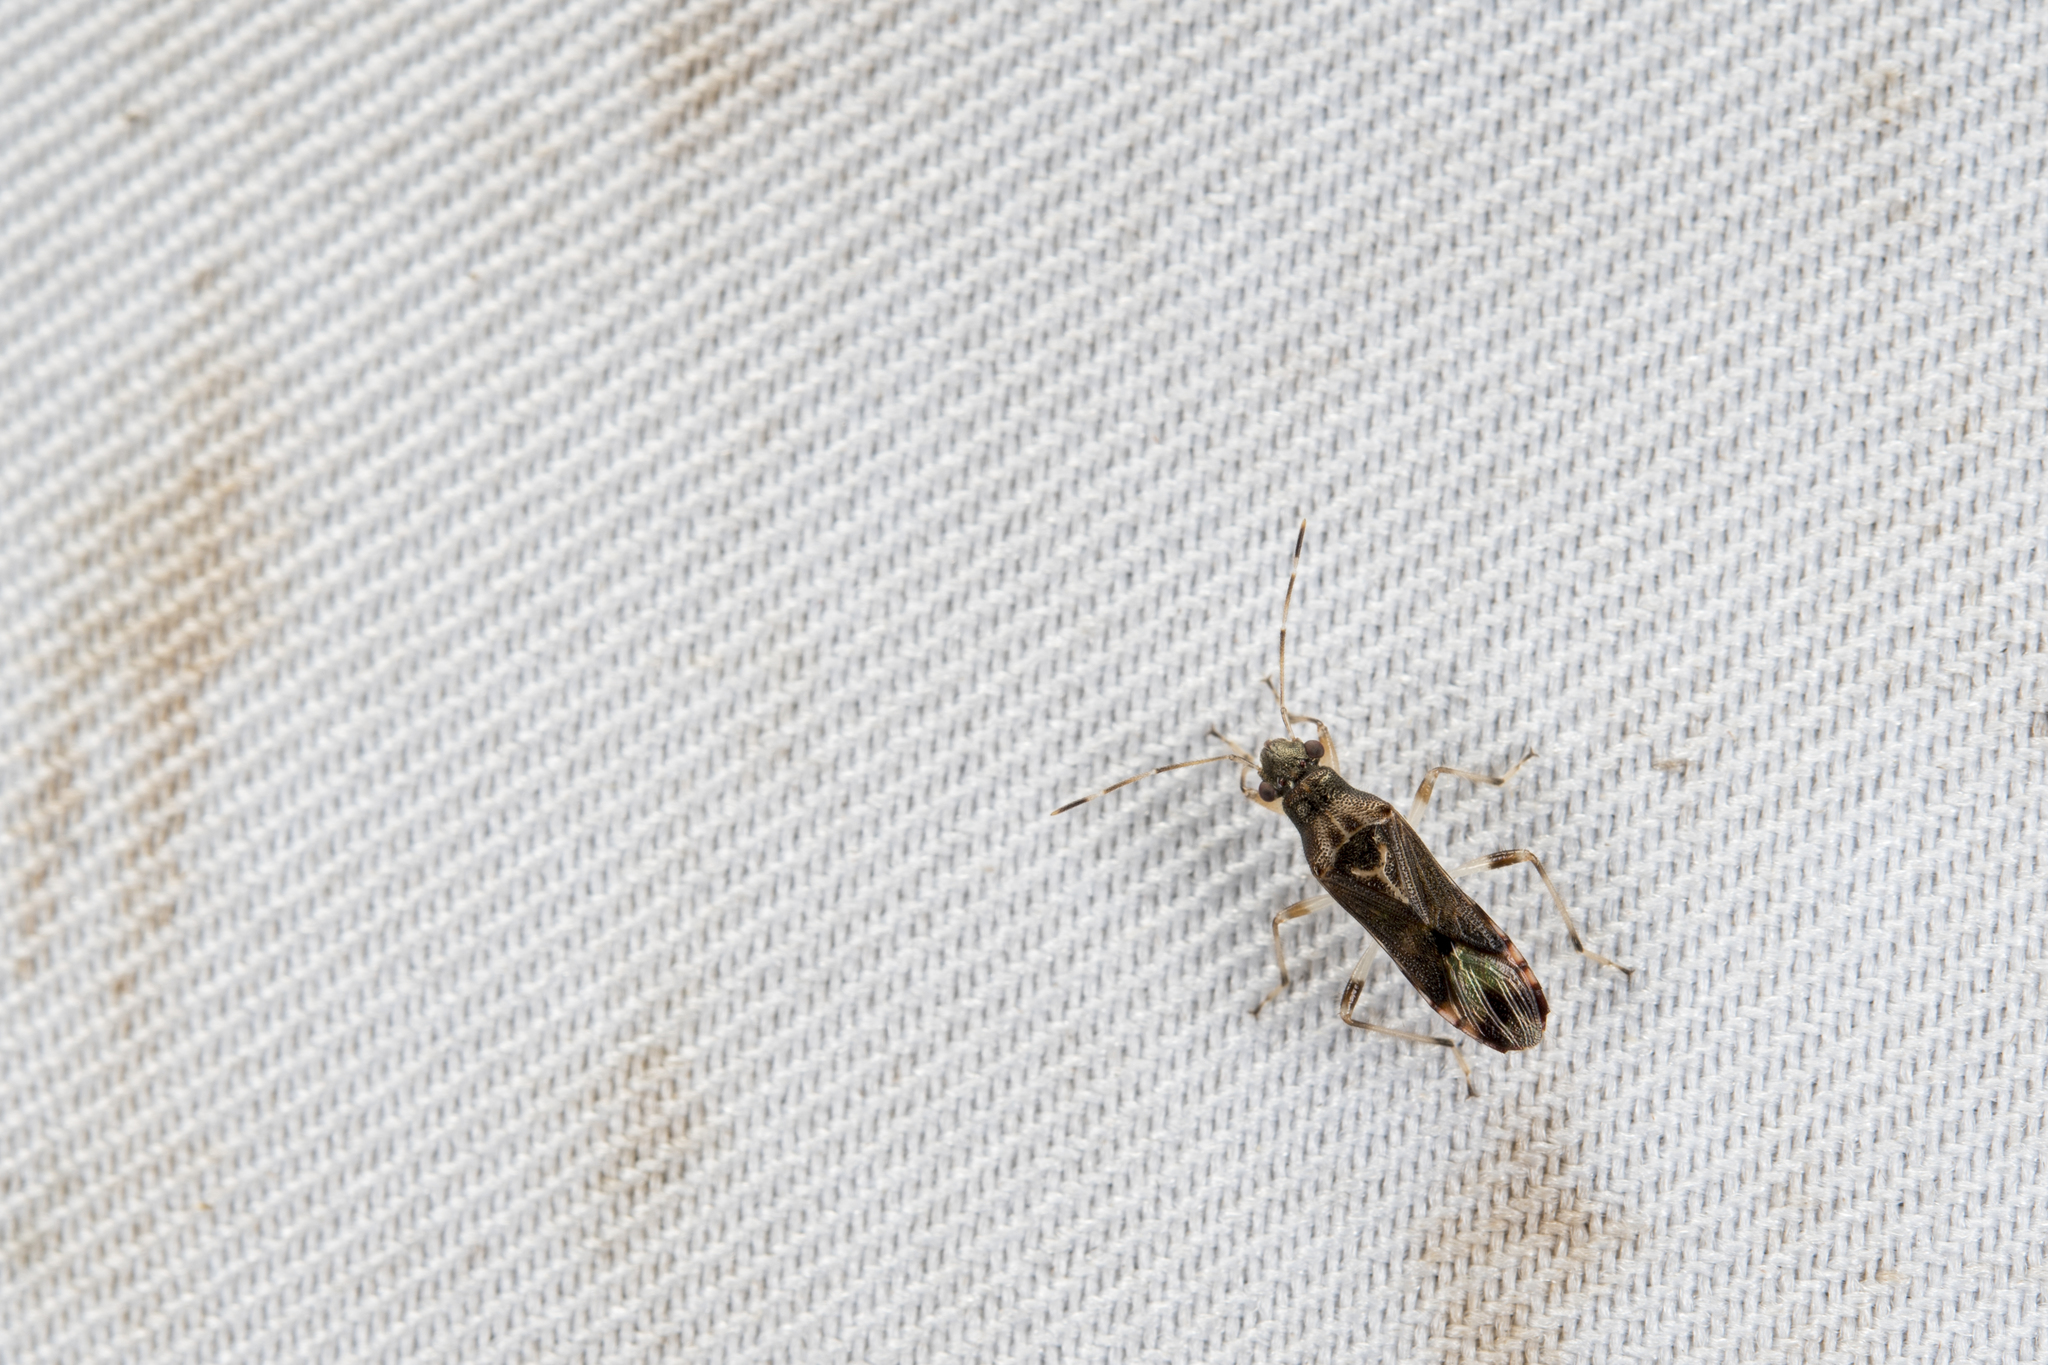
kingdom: Animalia
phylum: Arthropoda
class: Insecta
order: Hemiptera
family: Heterogastridae
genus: Parathyginus
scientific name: Parathyginus signifer
